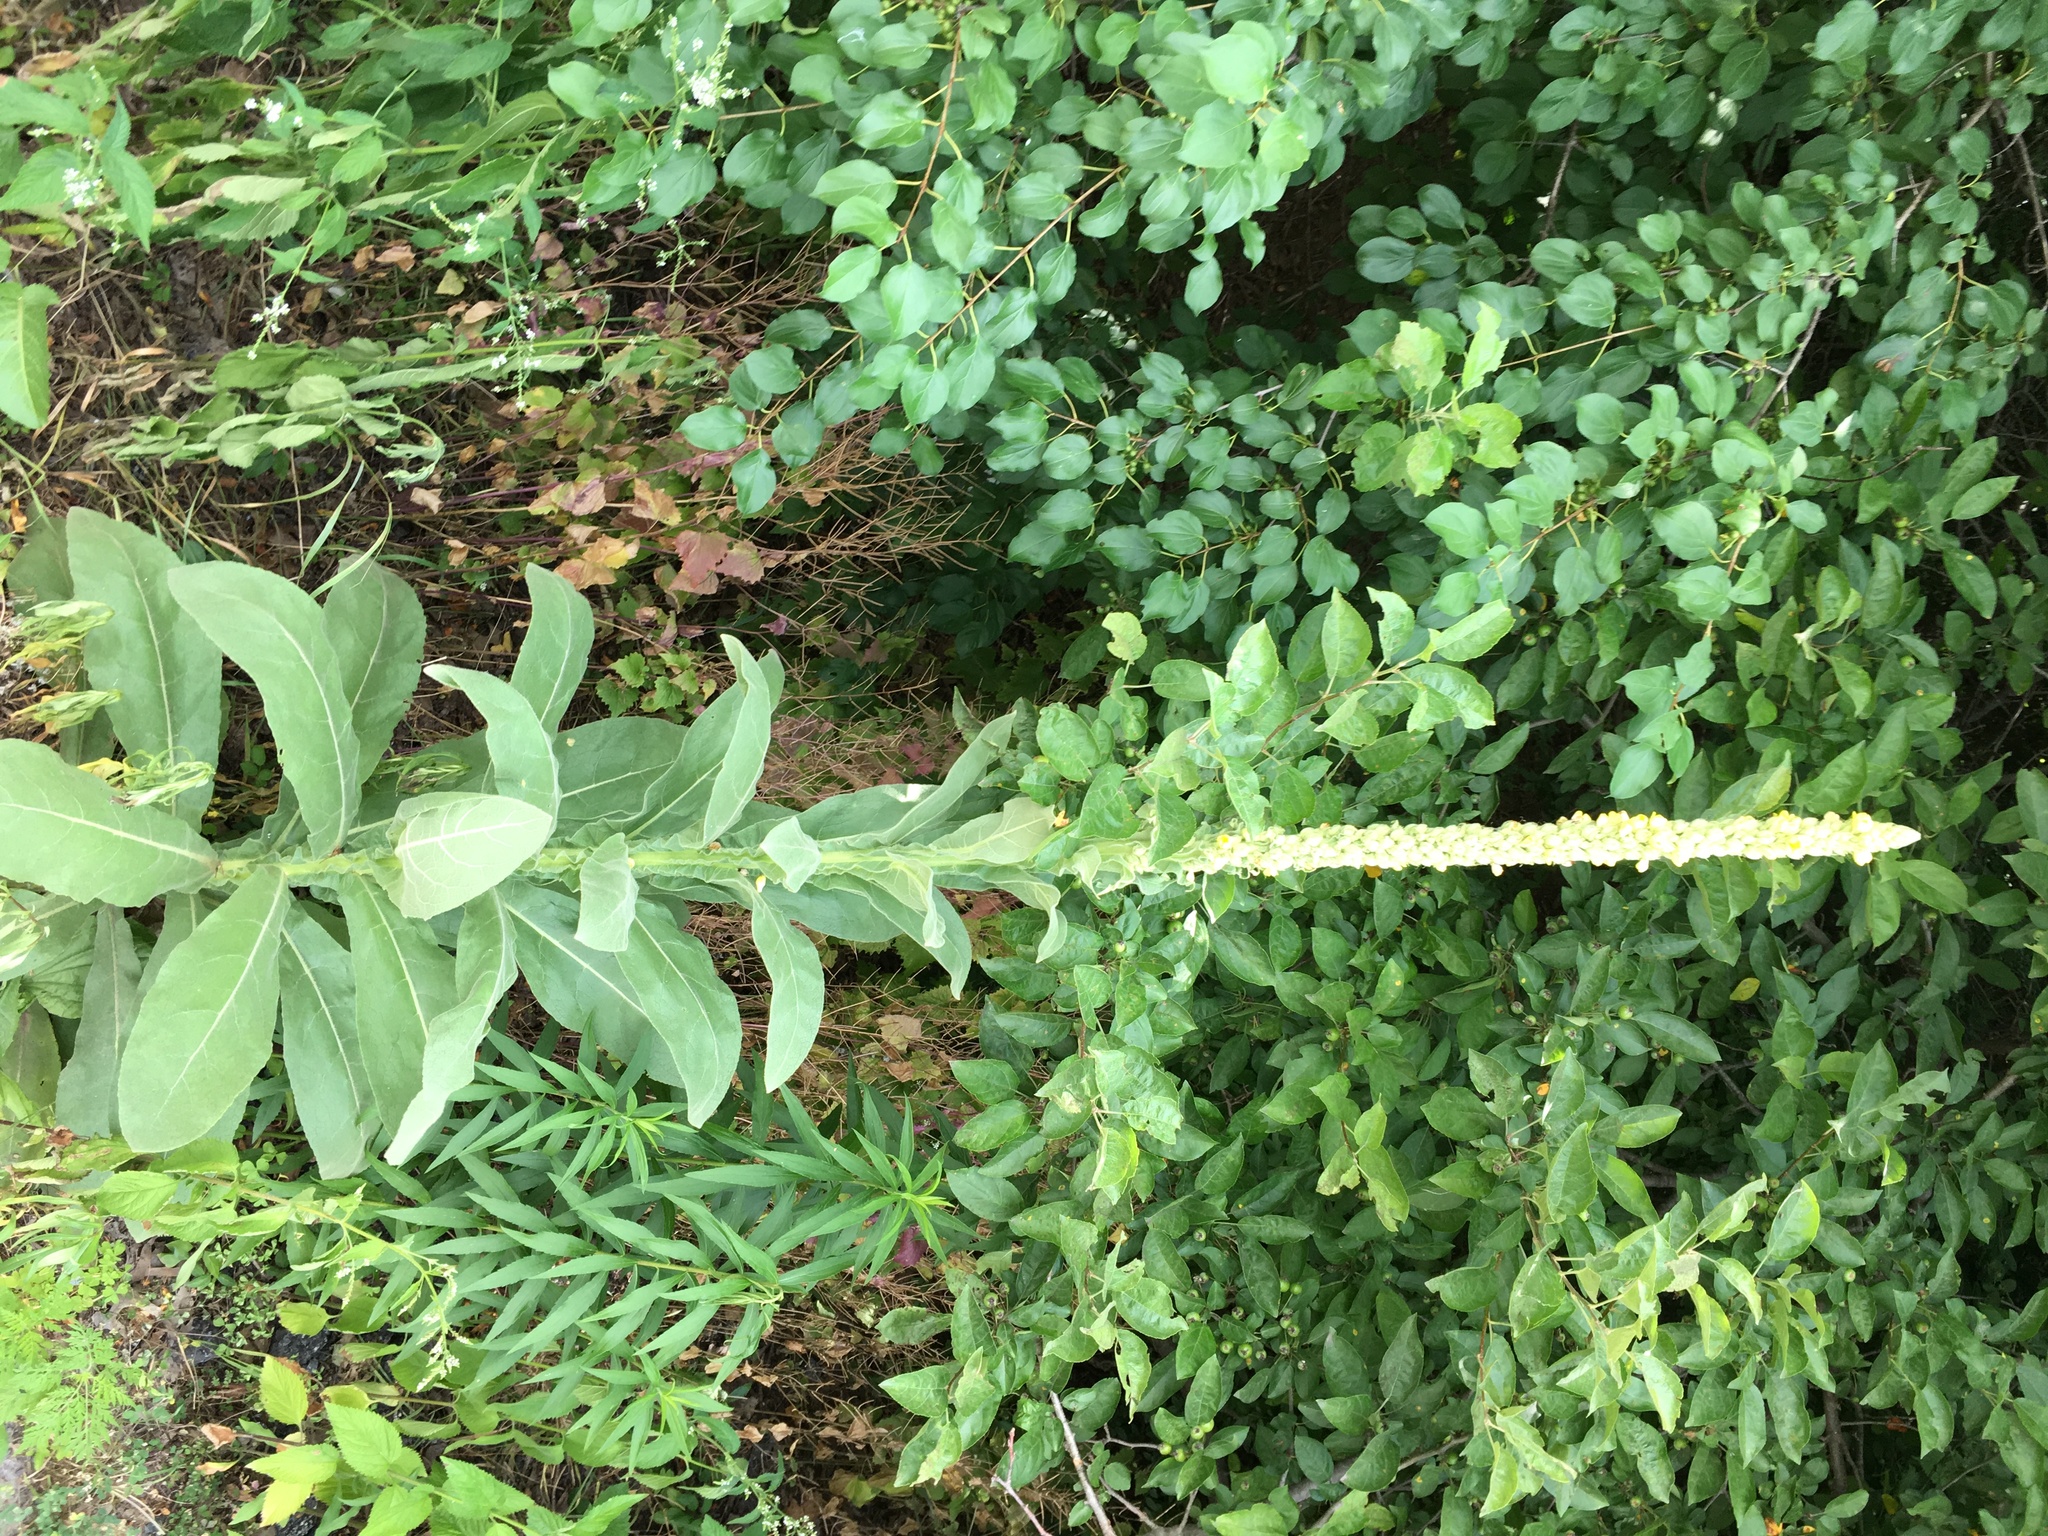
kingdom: Plantae
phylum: Tracheophyta
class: Magnoliopsida
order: Lamiales
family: Scrophulariaceae
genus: Verbascum
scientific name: Verbascum thapsus
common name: Common mullein
